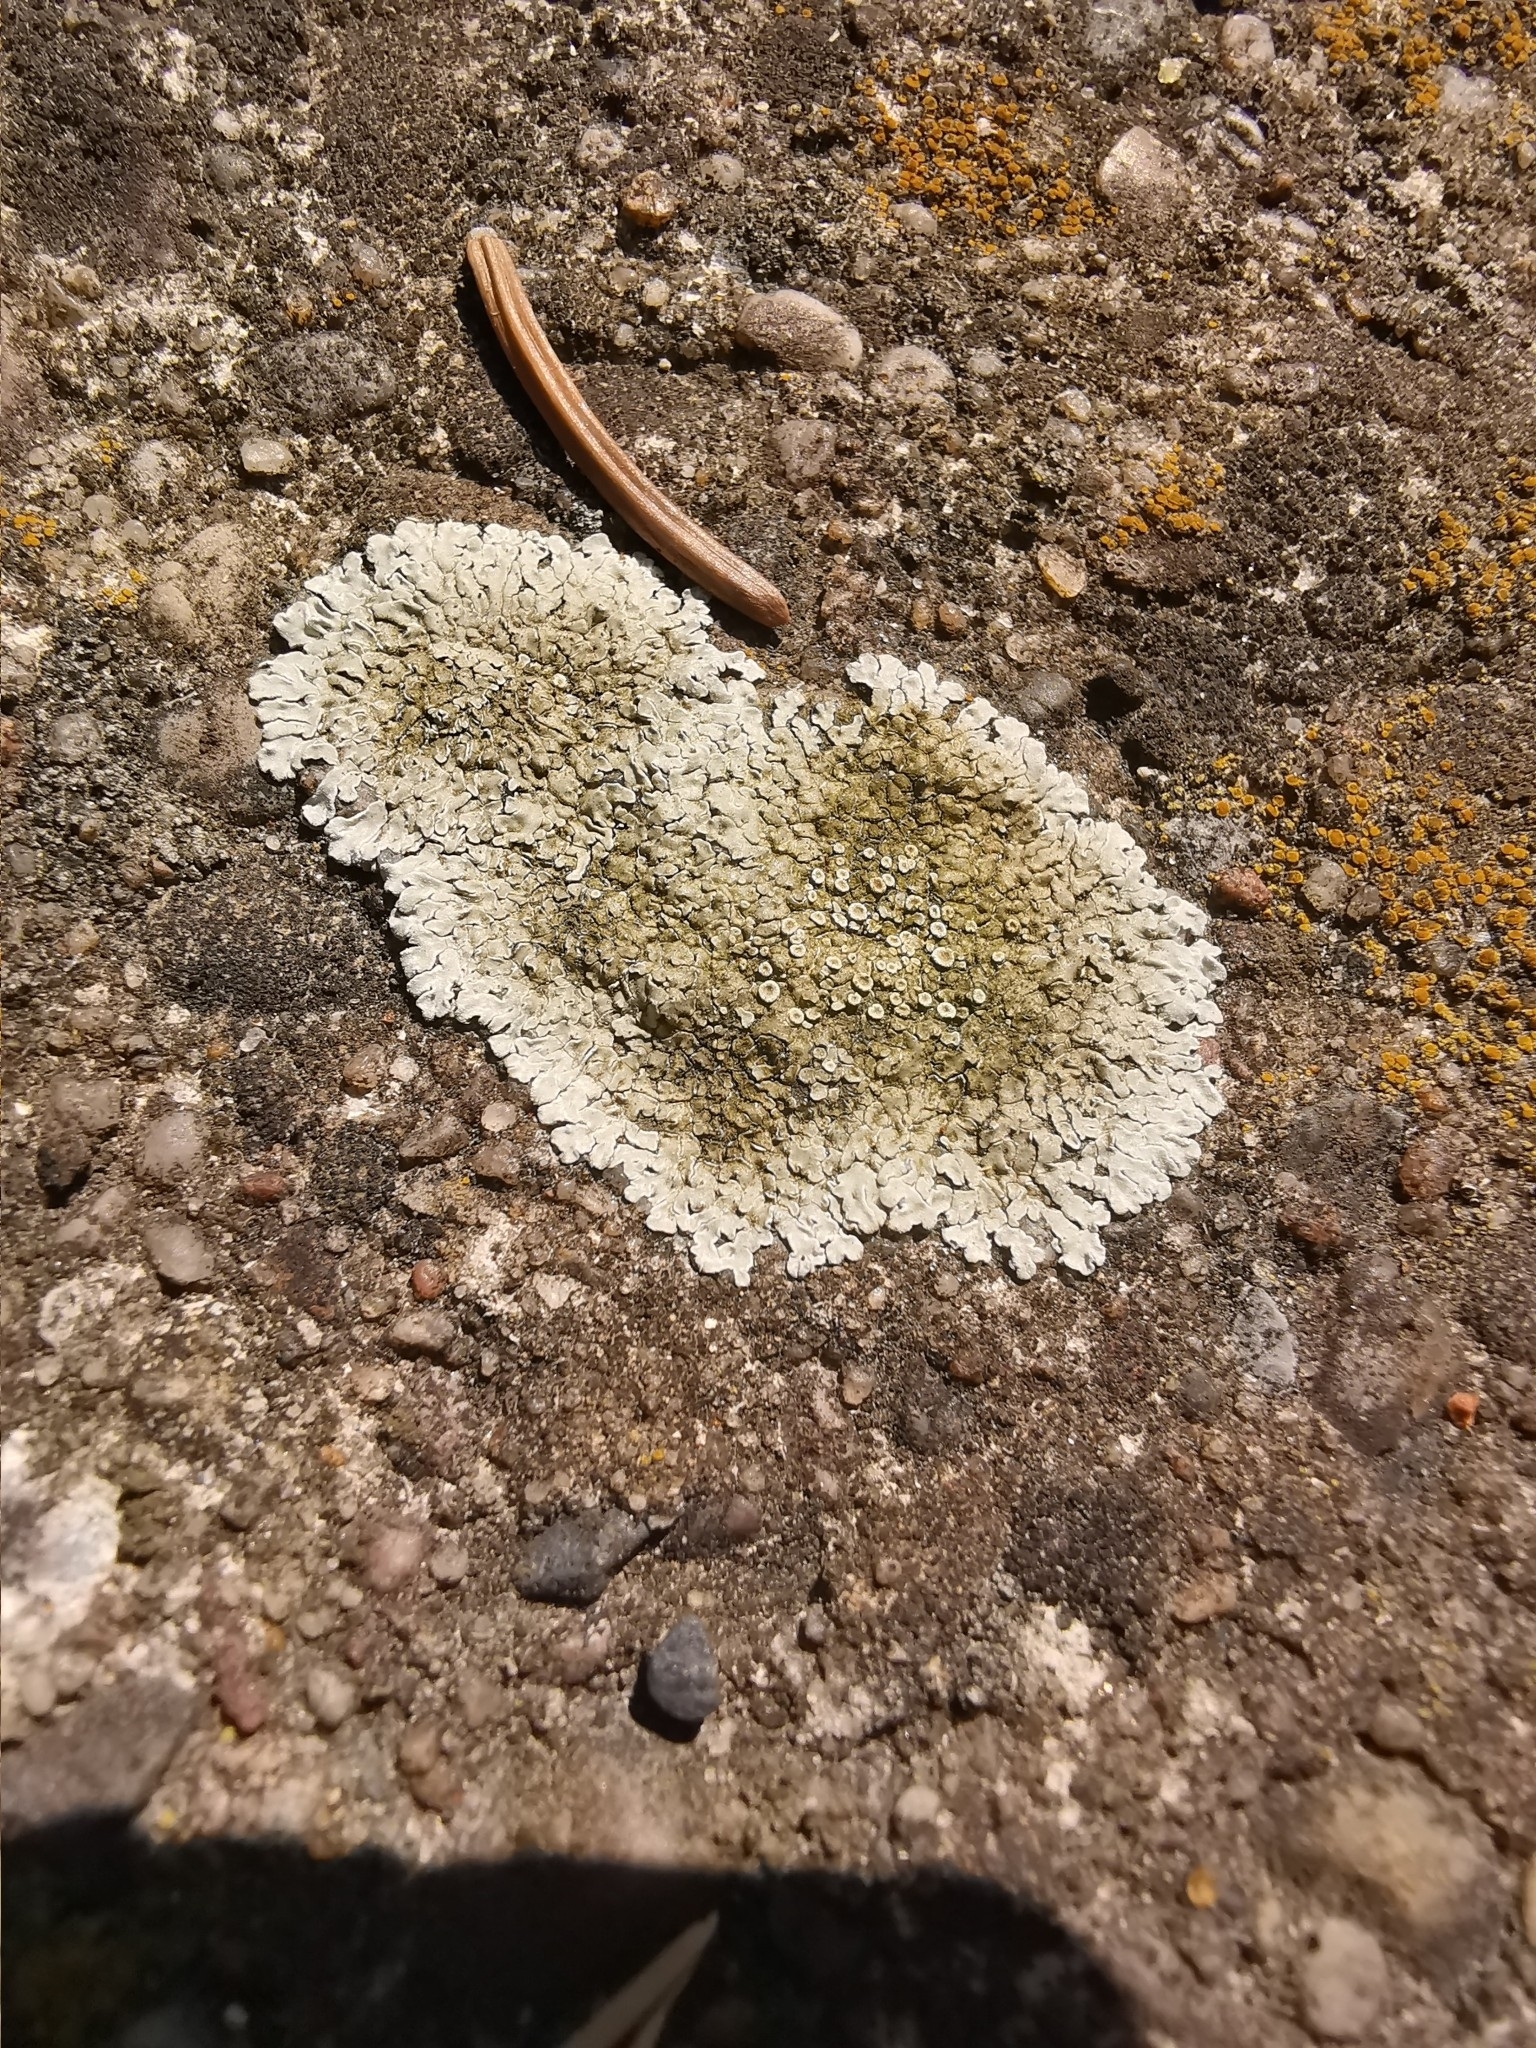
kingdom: Fungi
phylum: Ascomycota
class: Lecanoromycetes
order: Lecanorales
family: Lecanoraceae
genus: Protoparmeliopsis
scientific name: Protoparmeliopsis muralis
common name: Stonewall rim lichen
